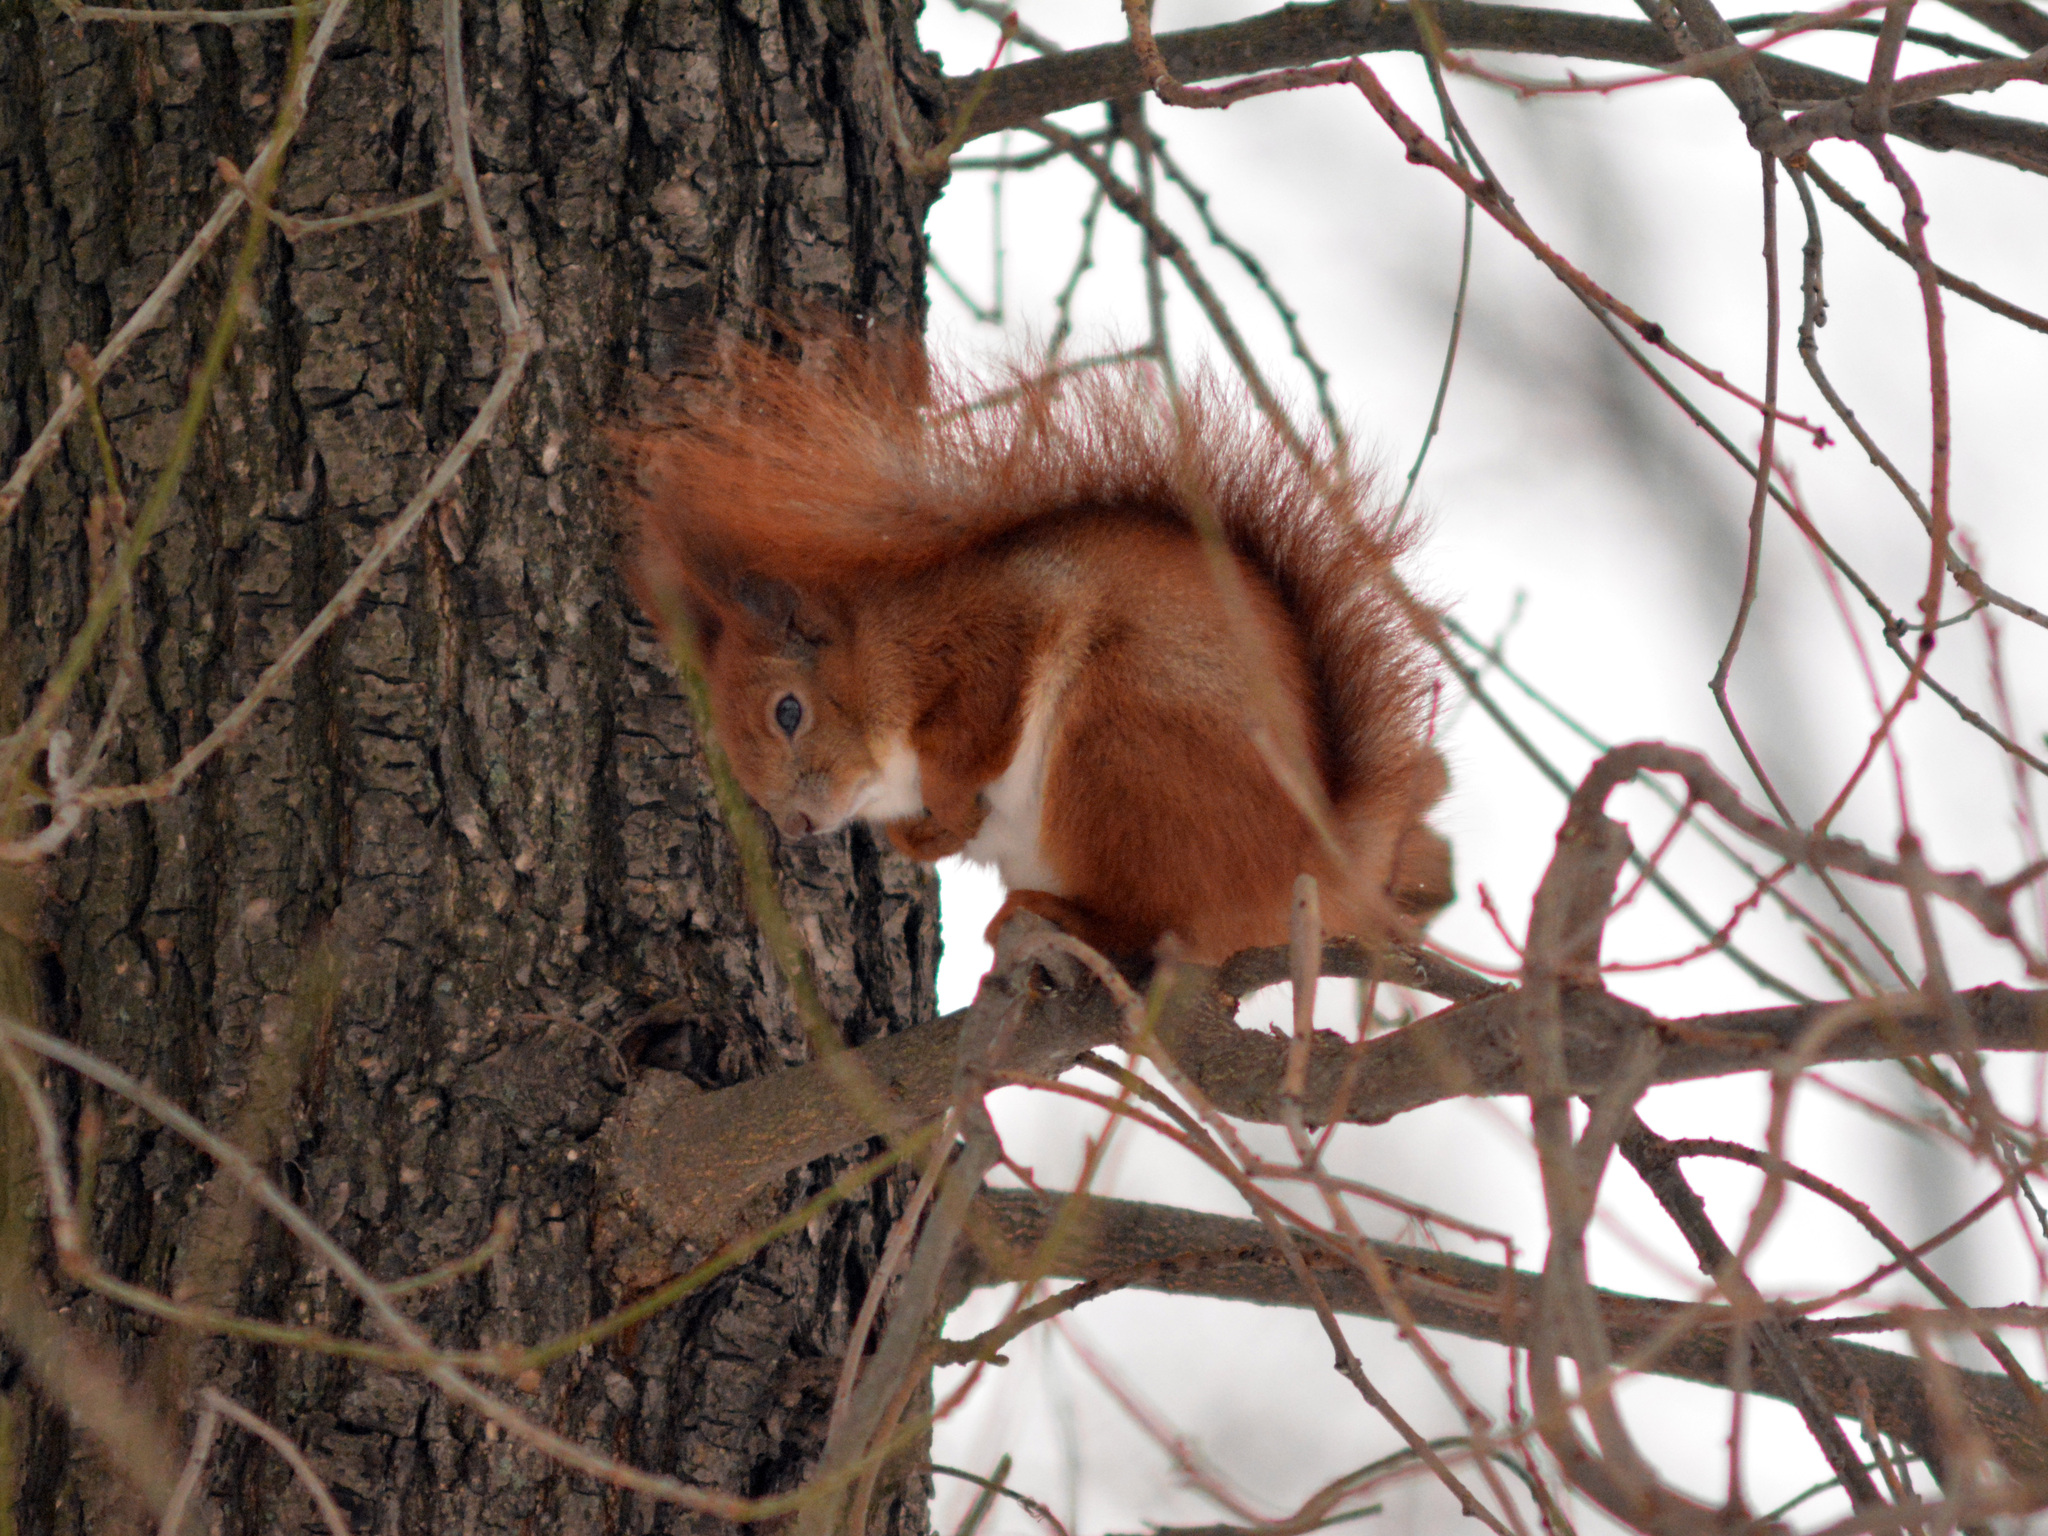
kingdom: Animalia
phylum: Chordata
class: Mammalia
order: Rodentia
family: Sciuridae
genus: Sciurus
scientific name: Sciurus vulgaris
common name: Eurasian red squirrel
